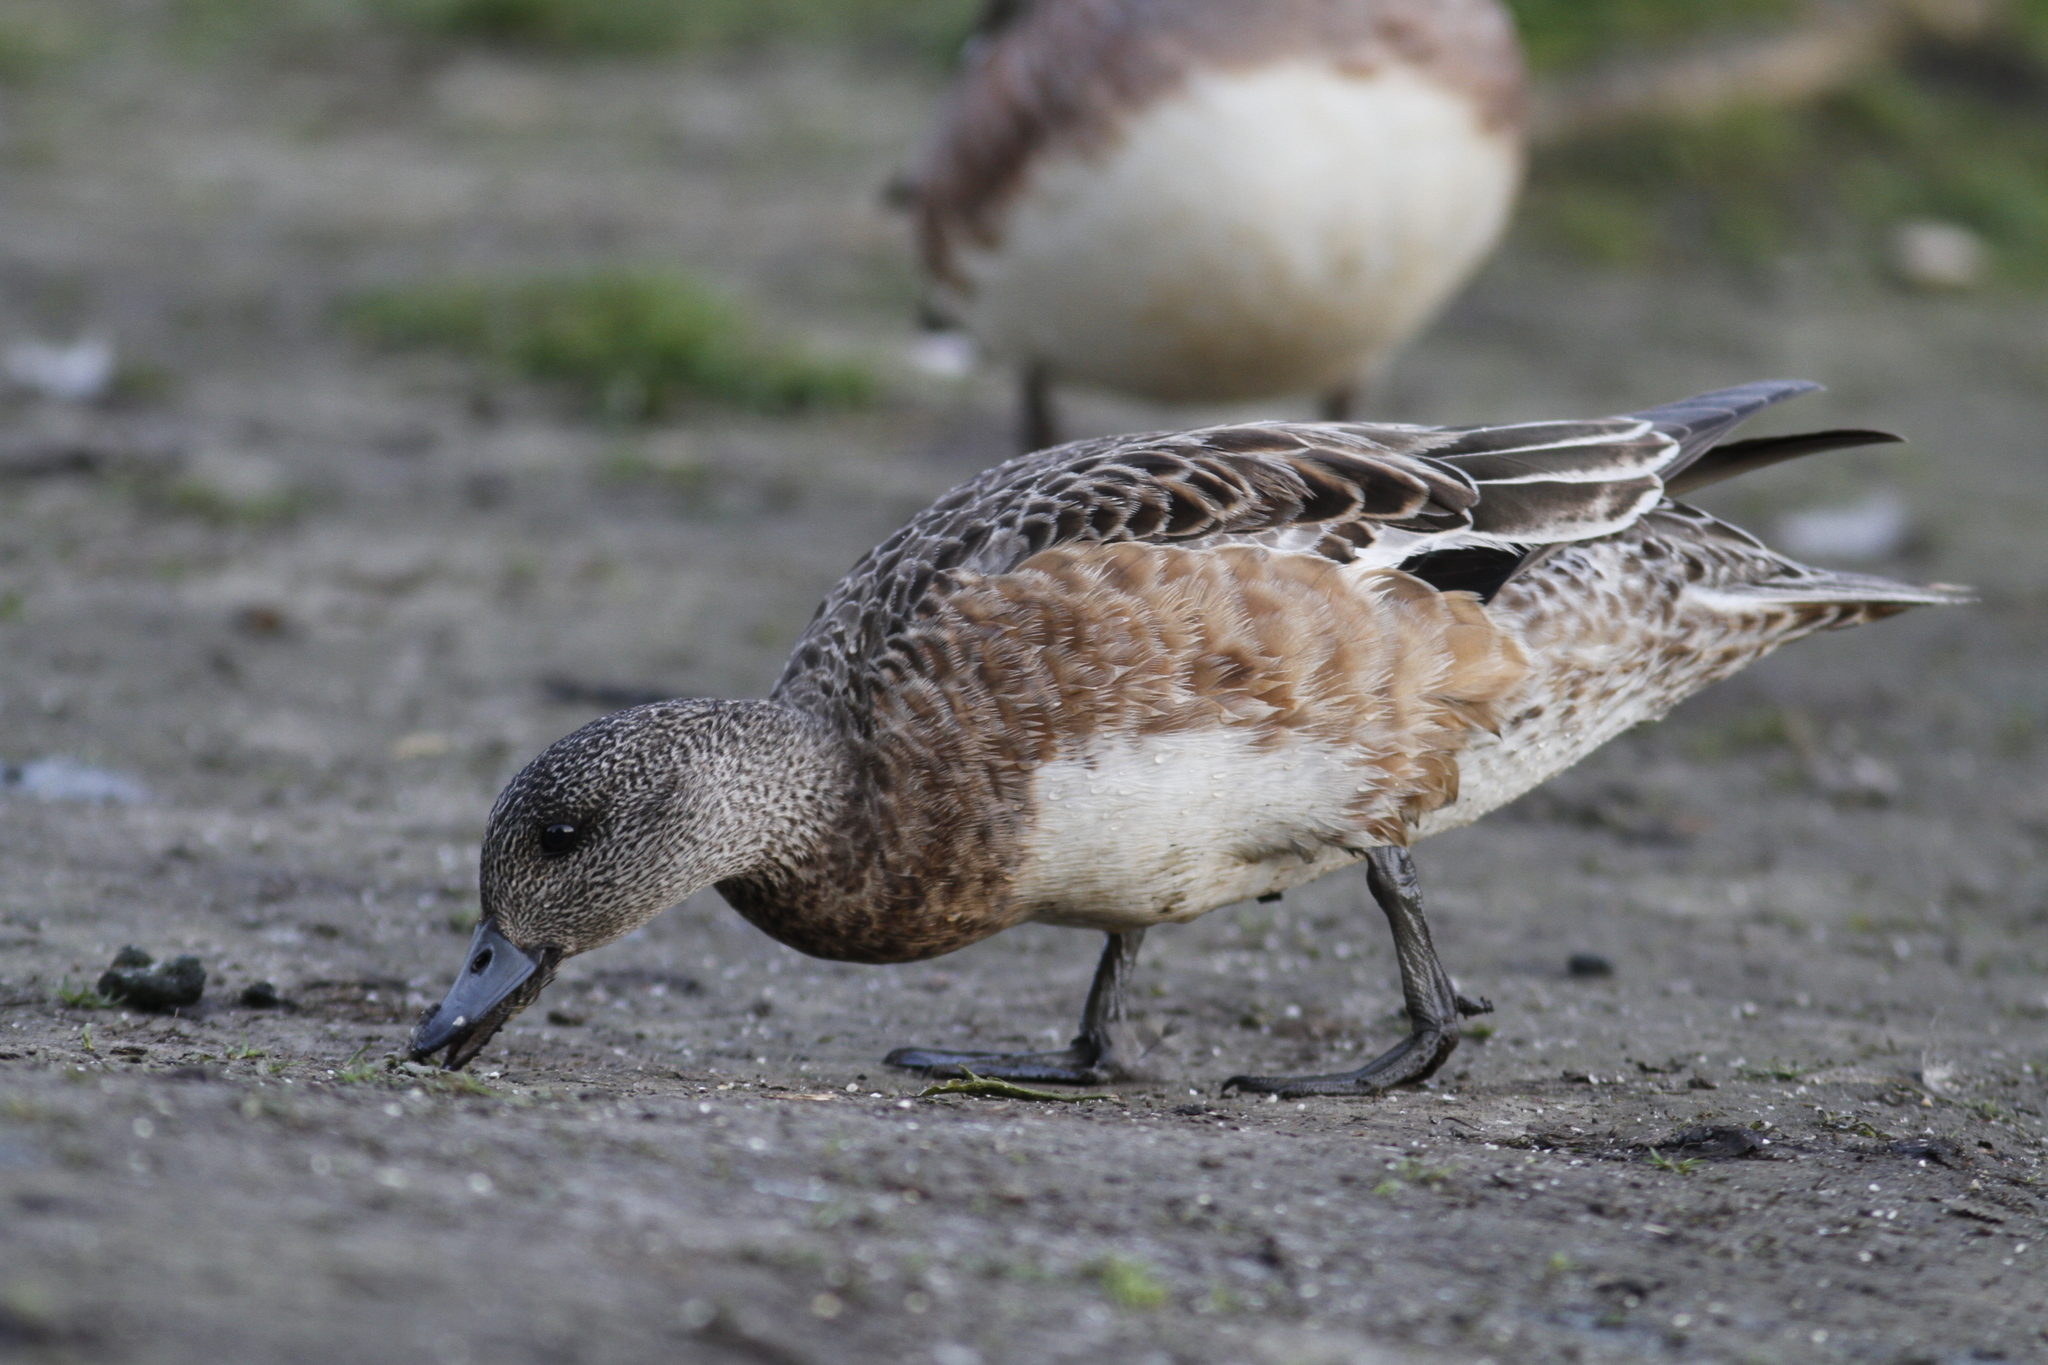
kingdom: Animalia
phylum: Chordata
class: Aves
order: Anseriformes
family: Anatidae
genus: Mareca
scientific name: Mareca americana
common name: American wigeon
